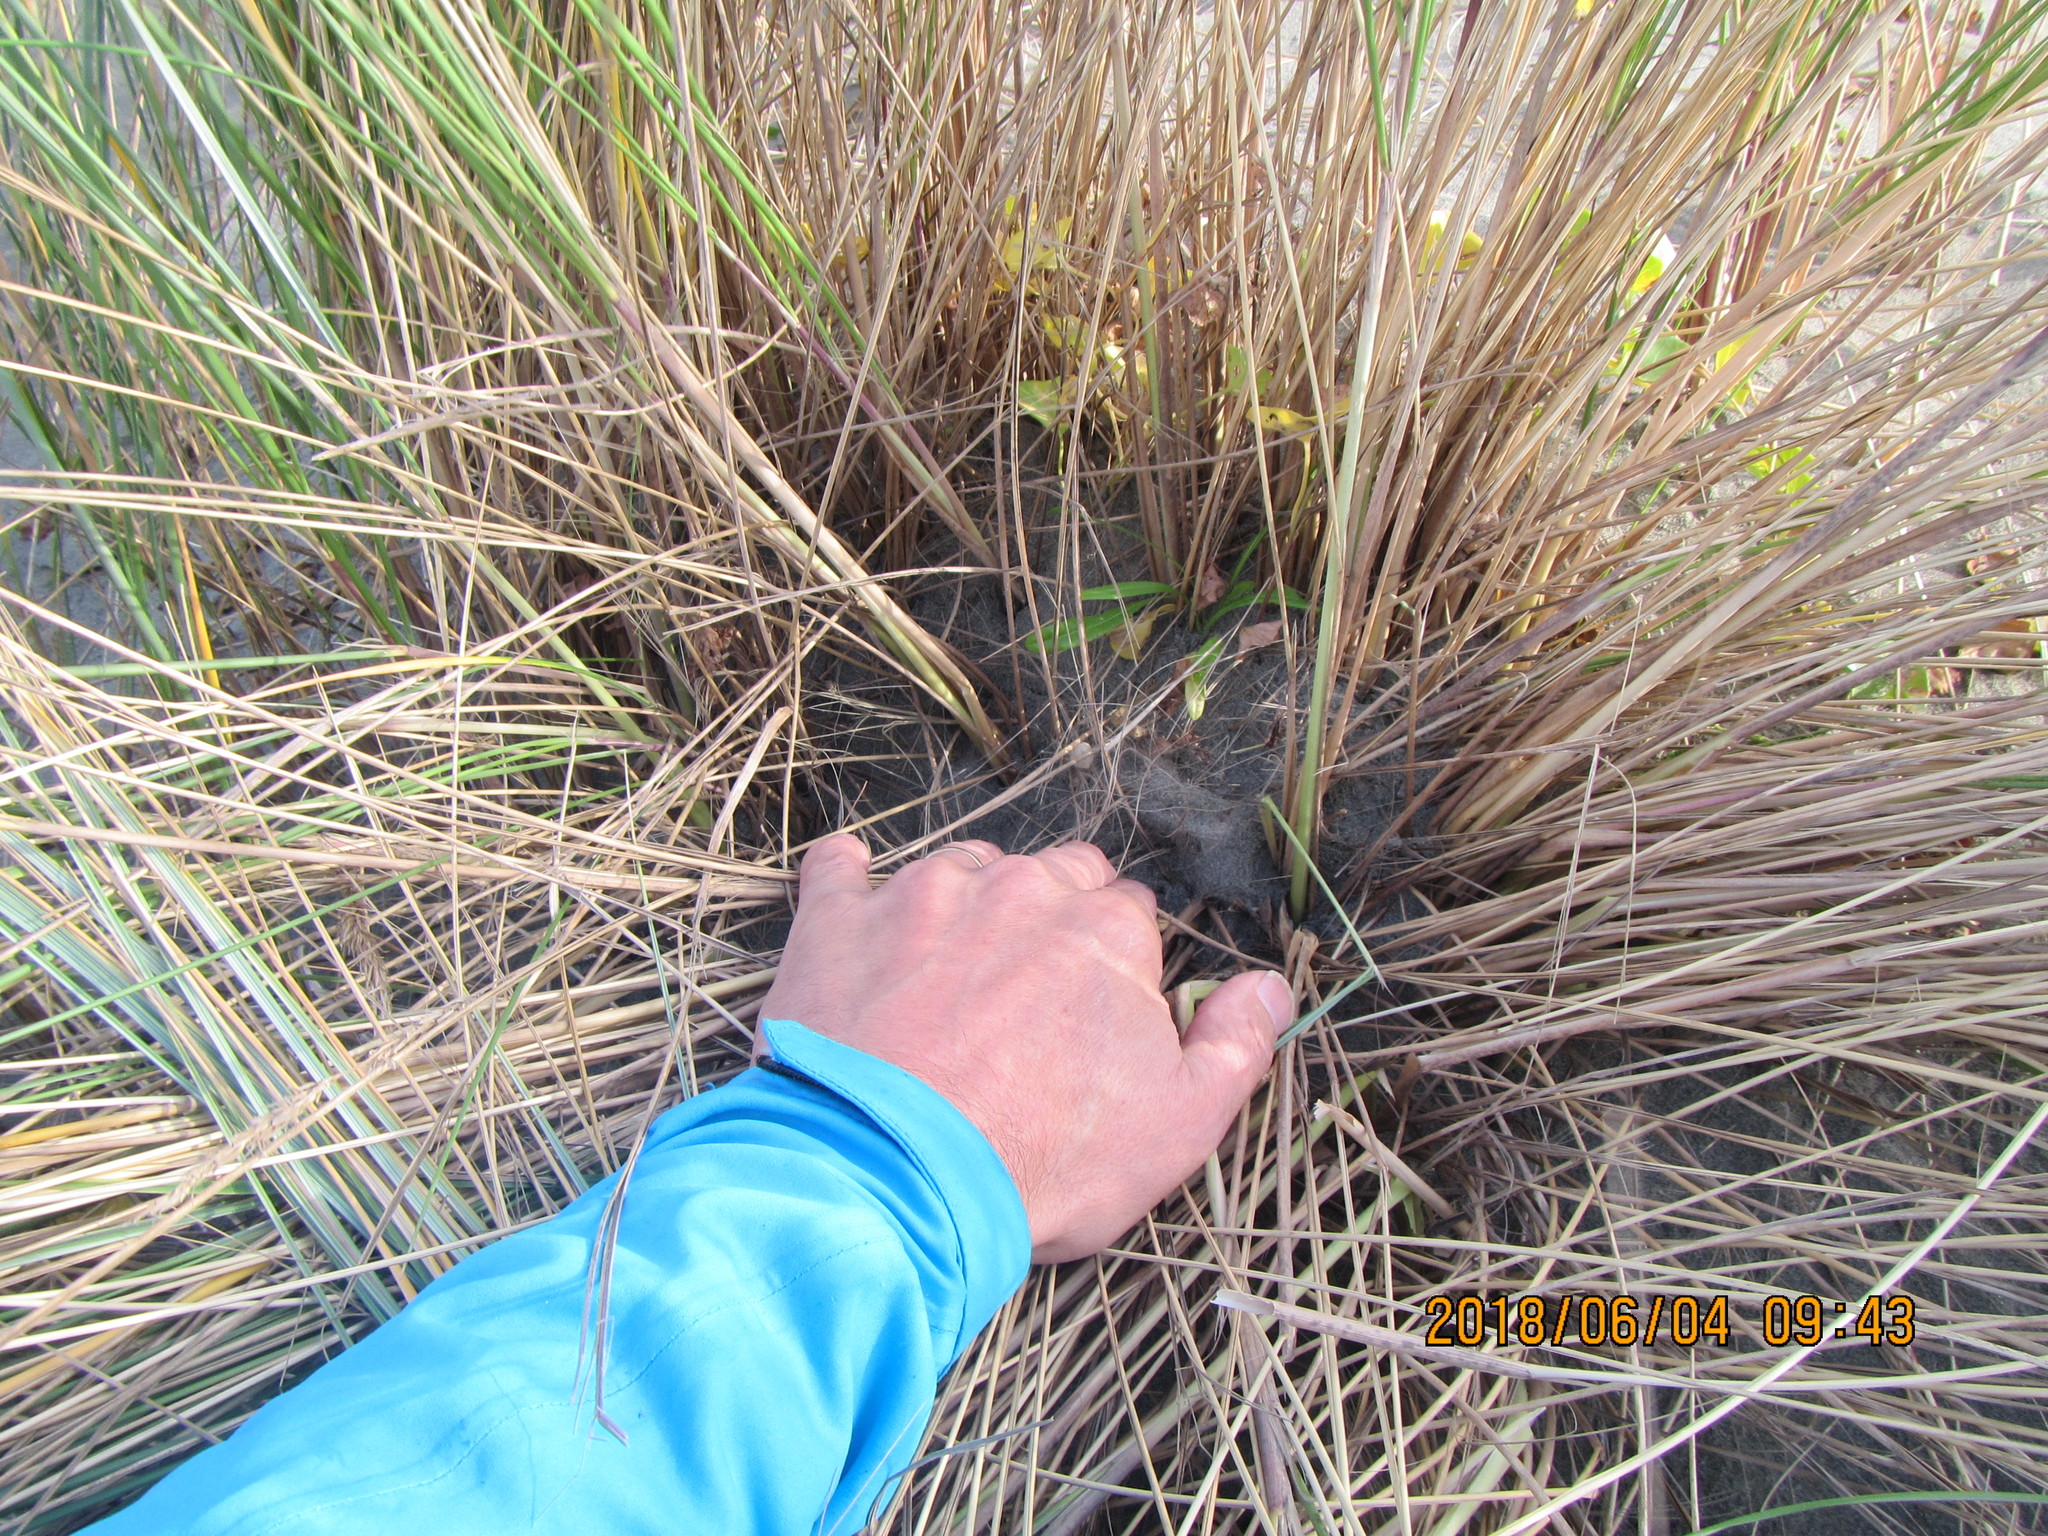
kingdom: Animalia
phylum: Arthropoda
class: Arachnida
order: Araneae
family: Theridiidae
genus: Latrodectus
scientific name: Latrodectus katipo
